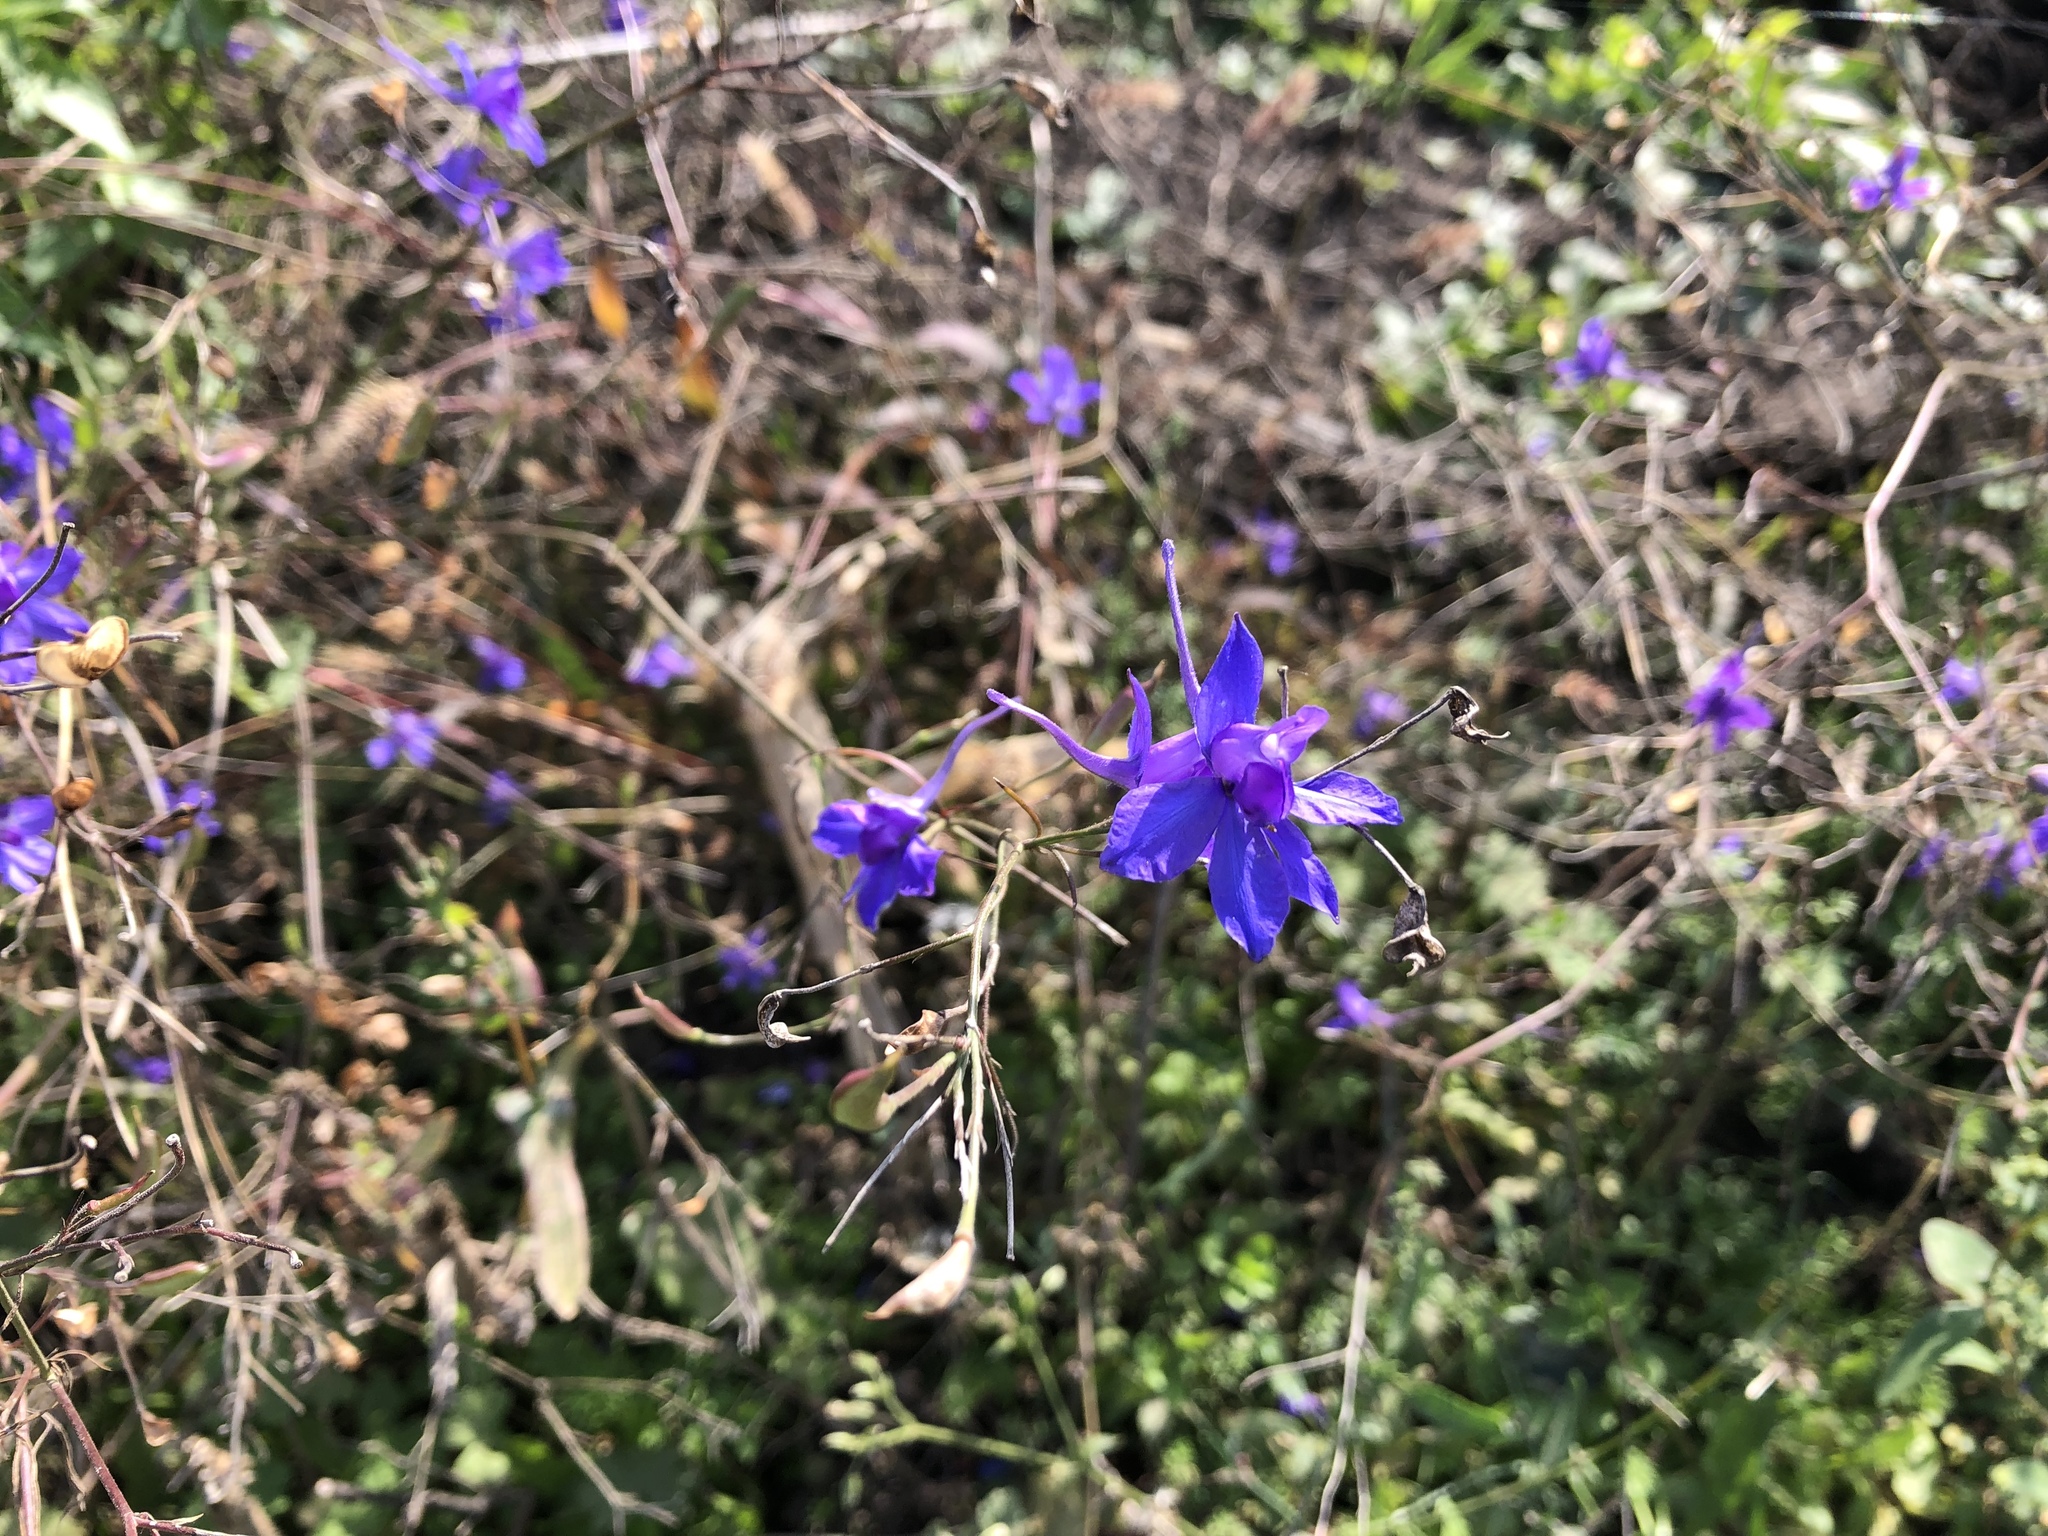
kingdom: Plantae
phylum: Tracheophyta
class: Magnoliopsida
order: Ranunculales
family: Ranunculaceae
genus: Delphinium
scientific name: Delphinium consolida
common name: Branching larkspur
